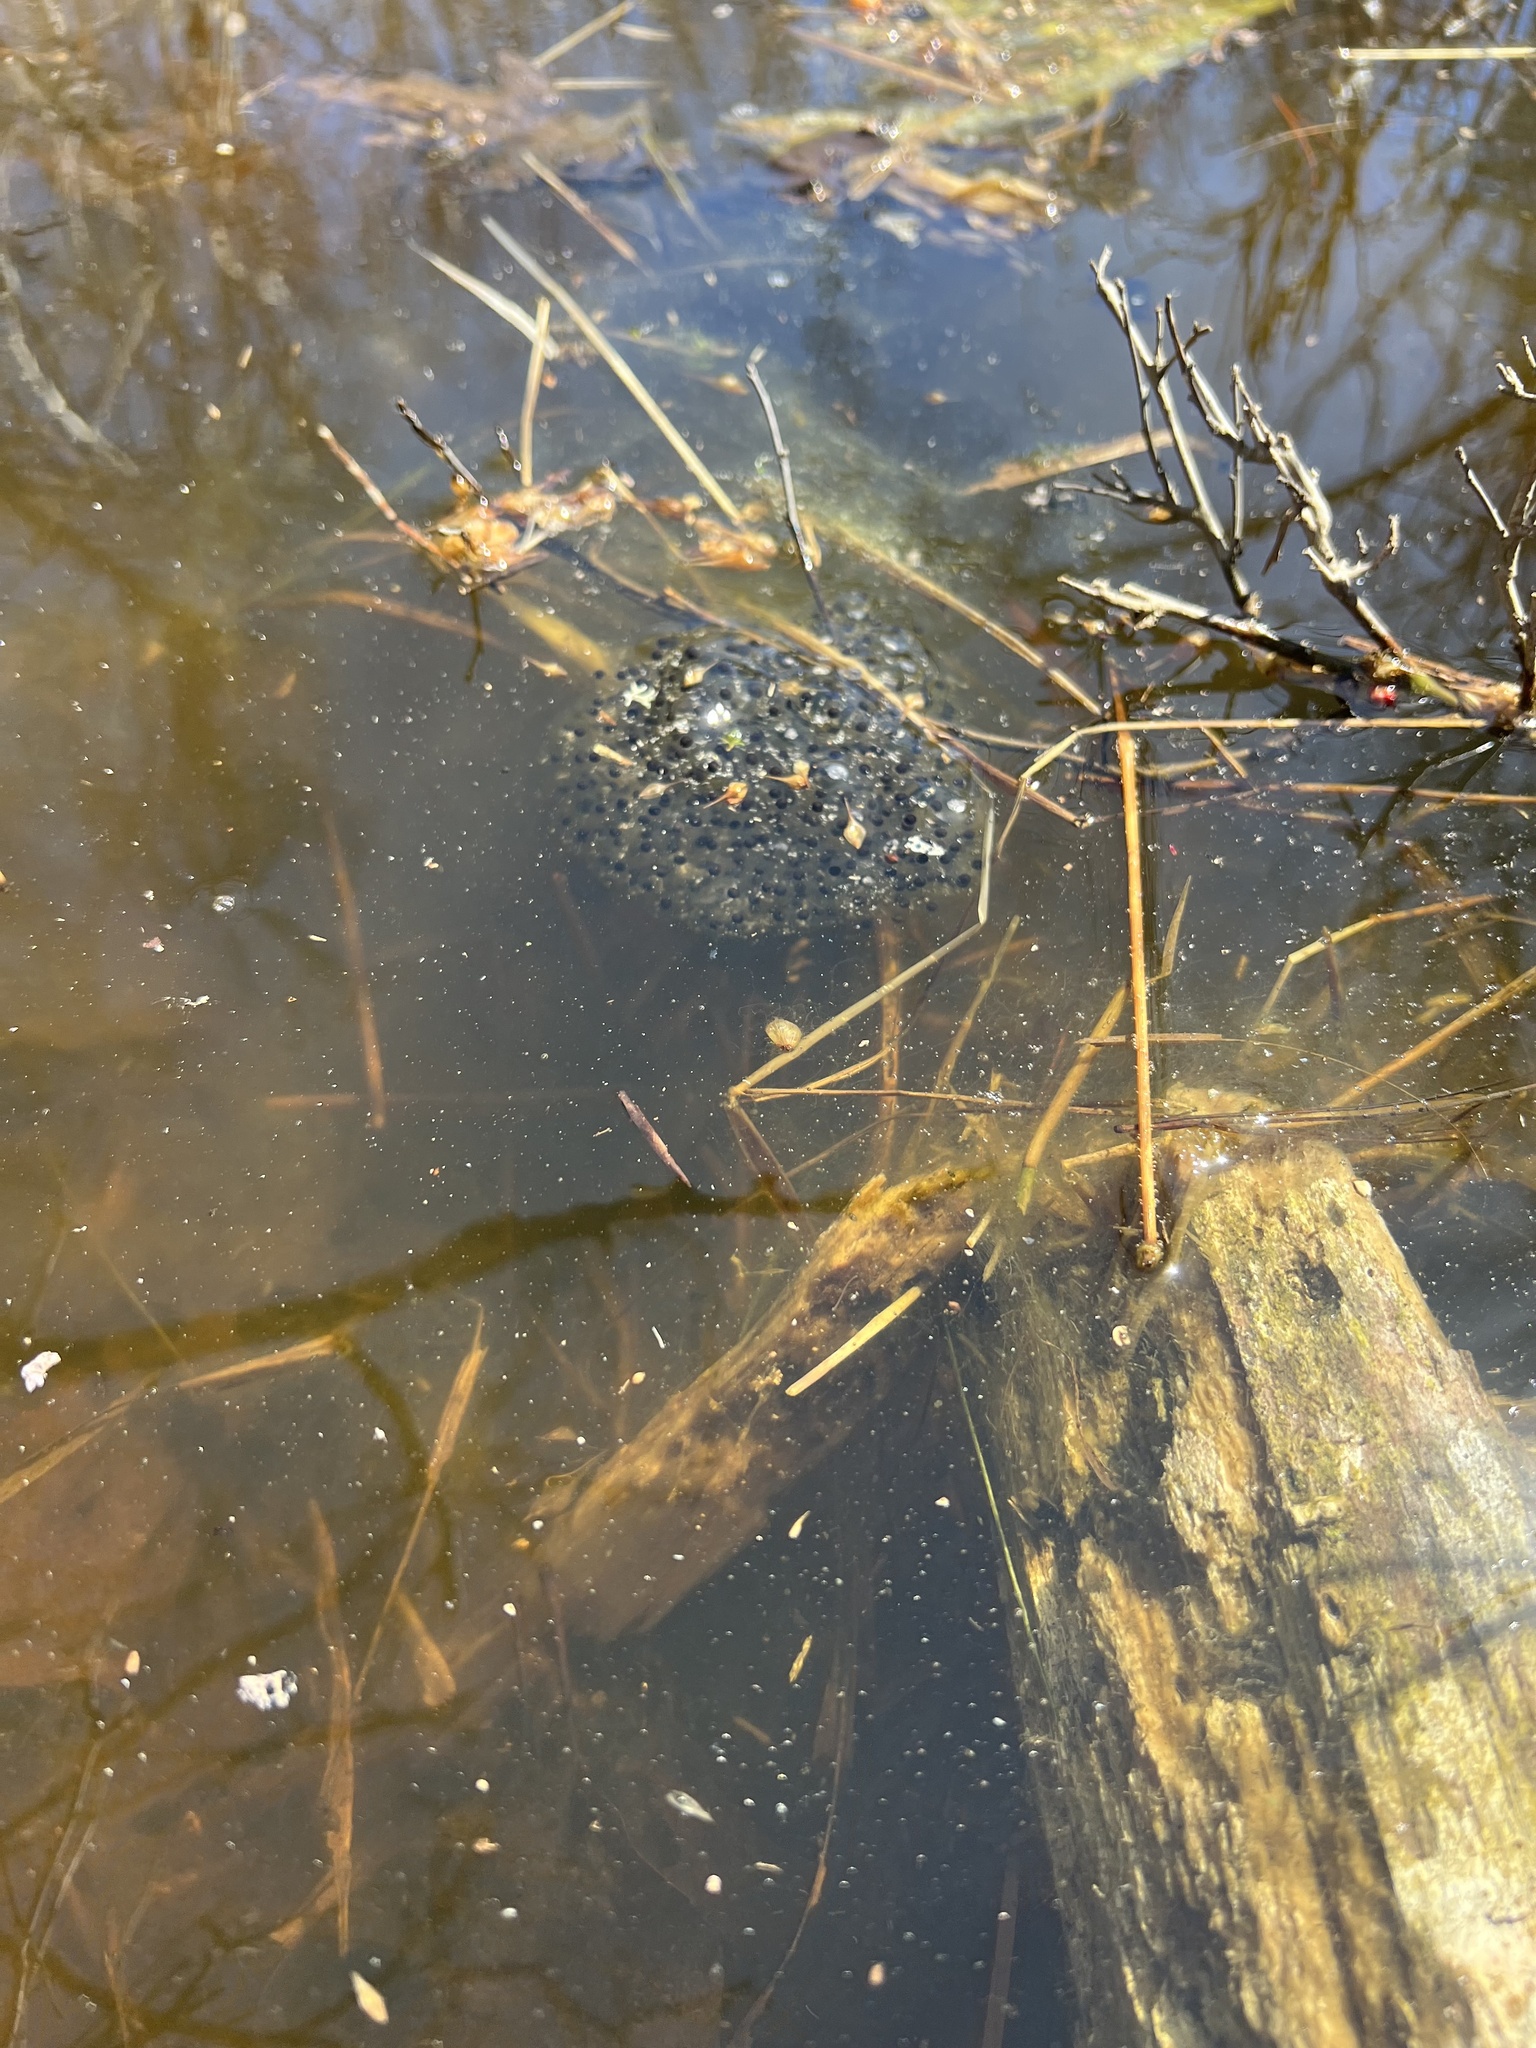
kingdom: Animalia
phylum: Chordata
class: Amphibia
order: Anura
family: Ranidae
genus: Lithobates
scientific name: Lithobates sylvaticus
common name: Wood frog
